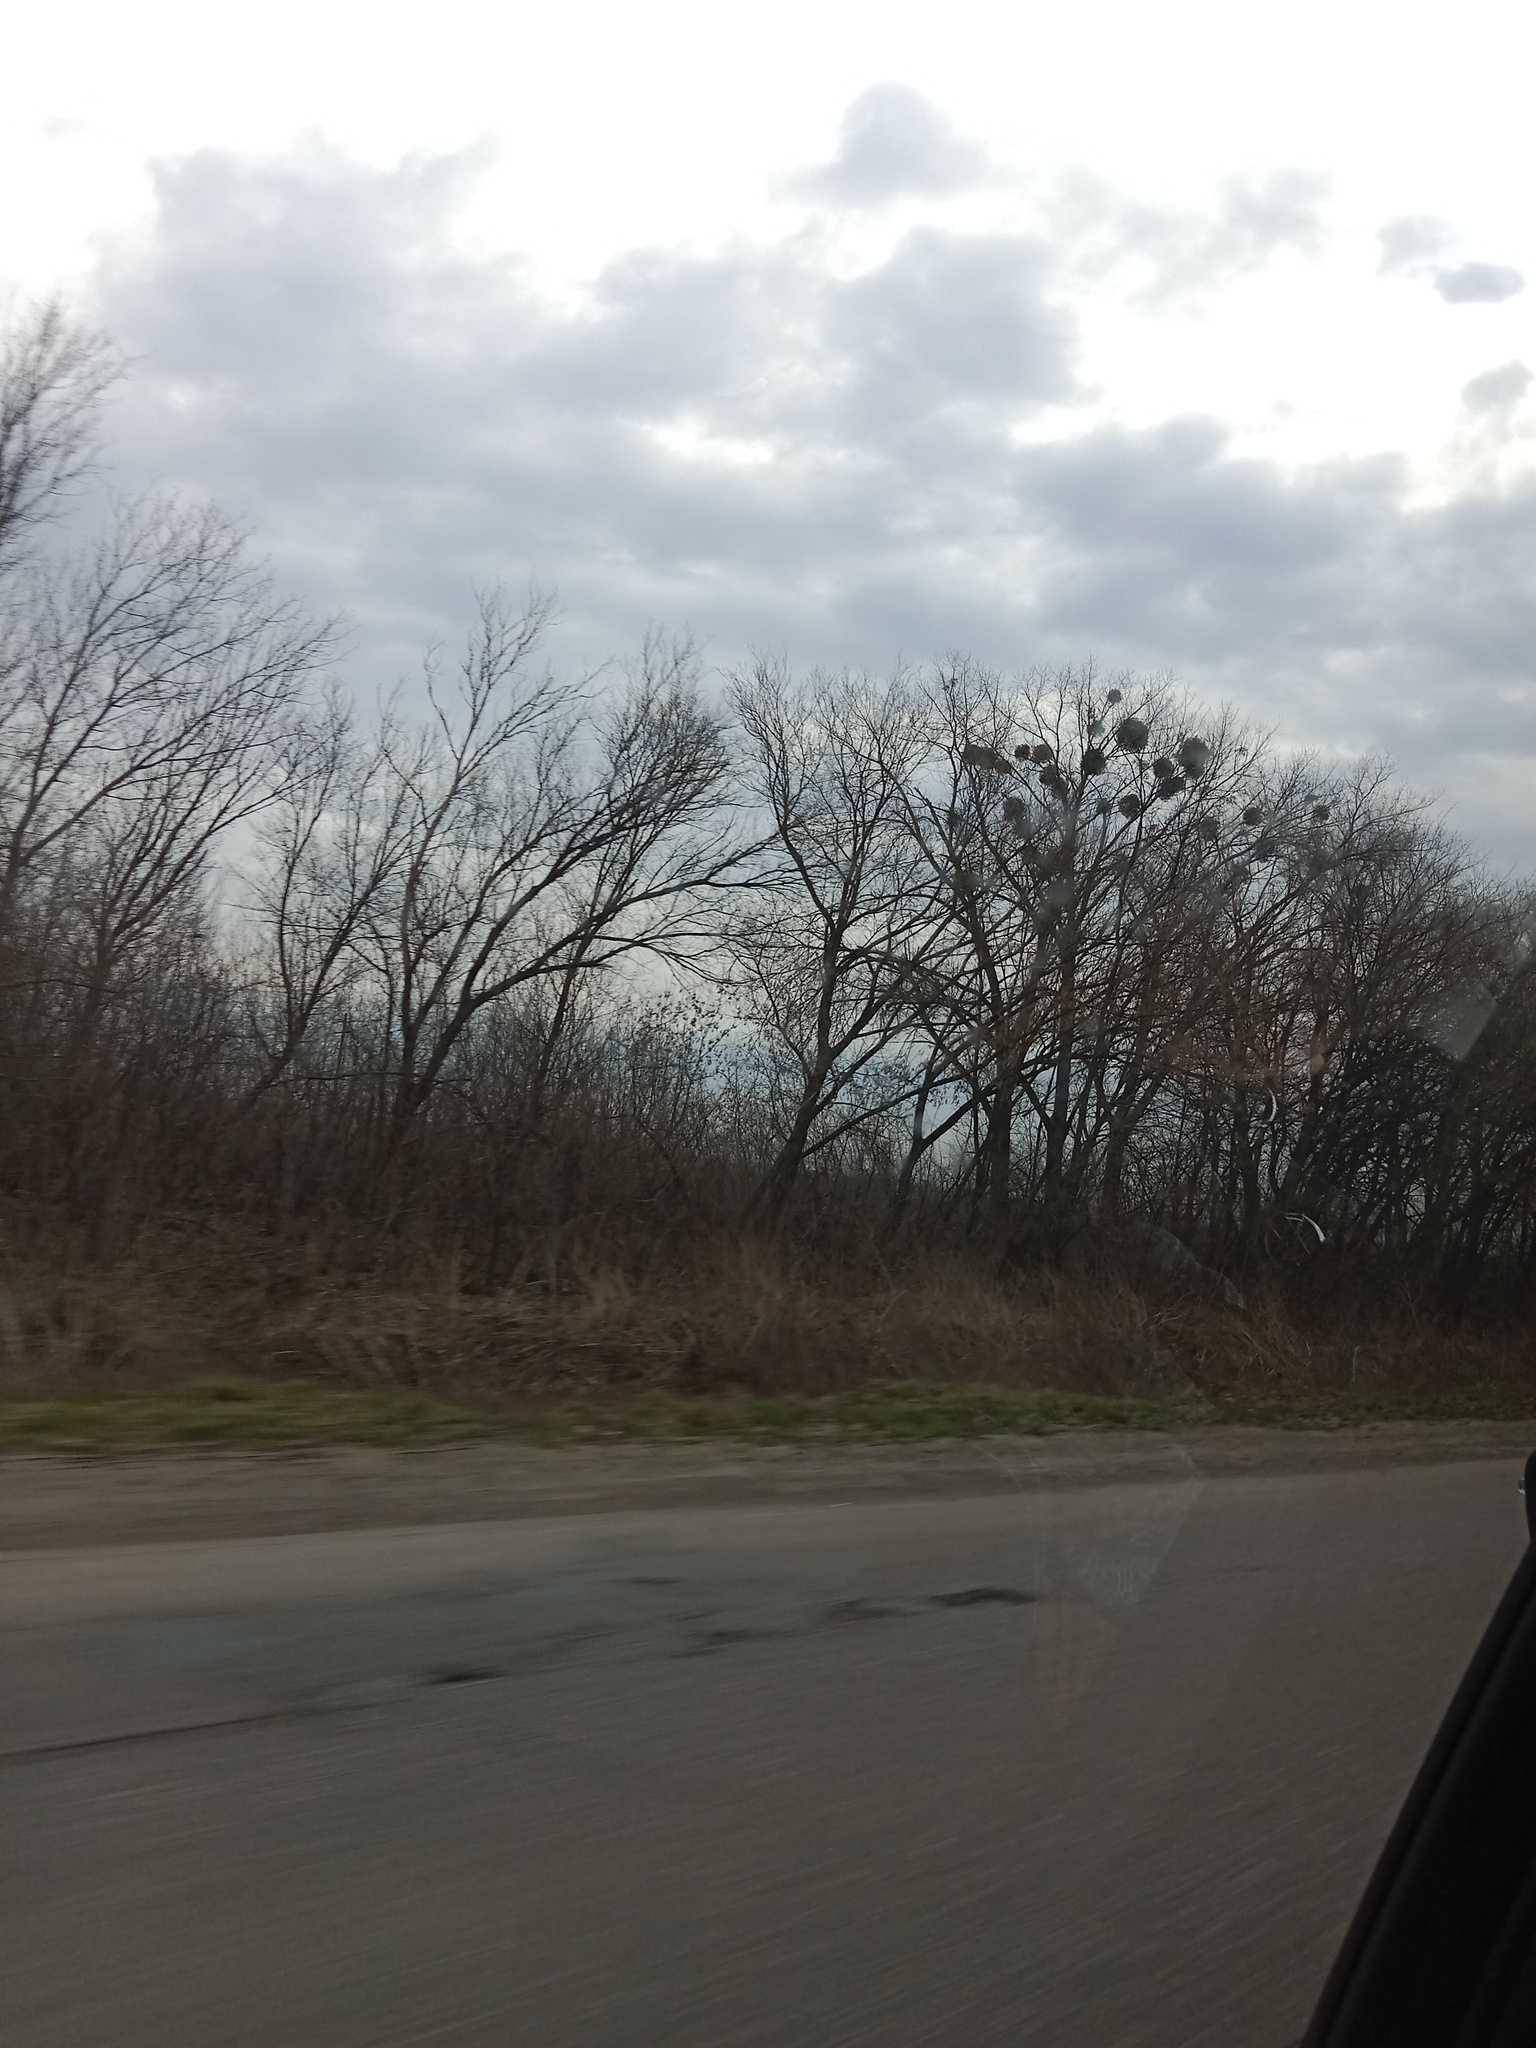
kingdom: Plantae
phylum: Tracheophyta
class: Magnoliopsida
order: Santalales
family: Viscaceae
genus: Viscum
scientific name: Viscum album
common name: Mistletoe
